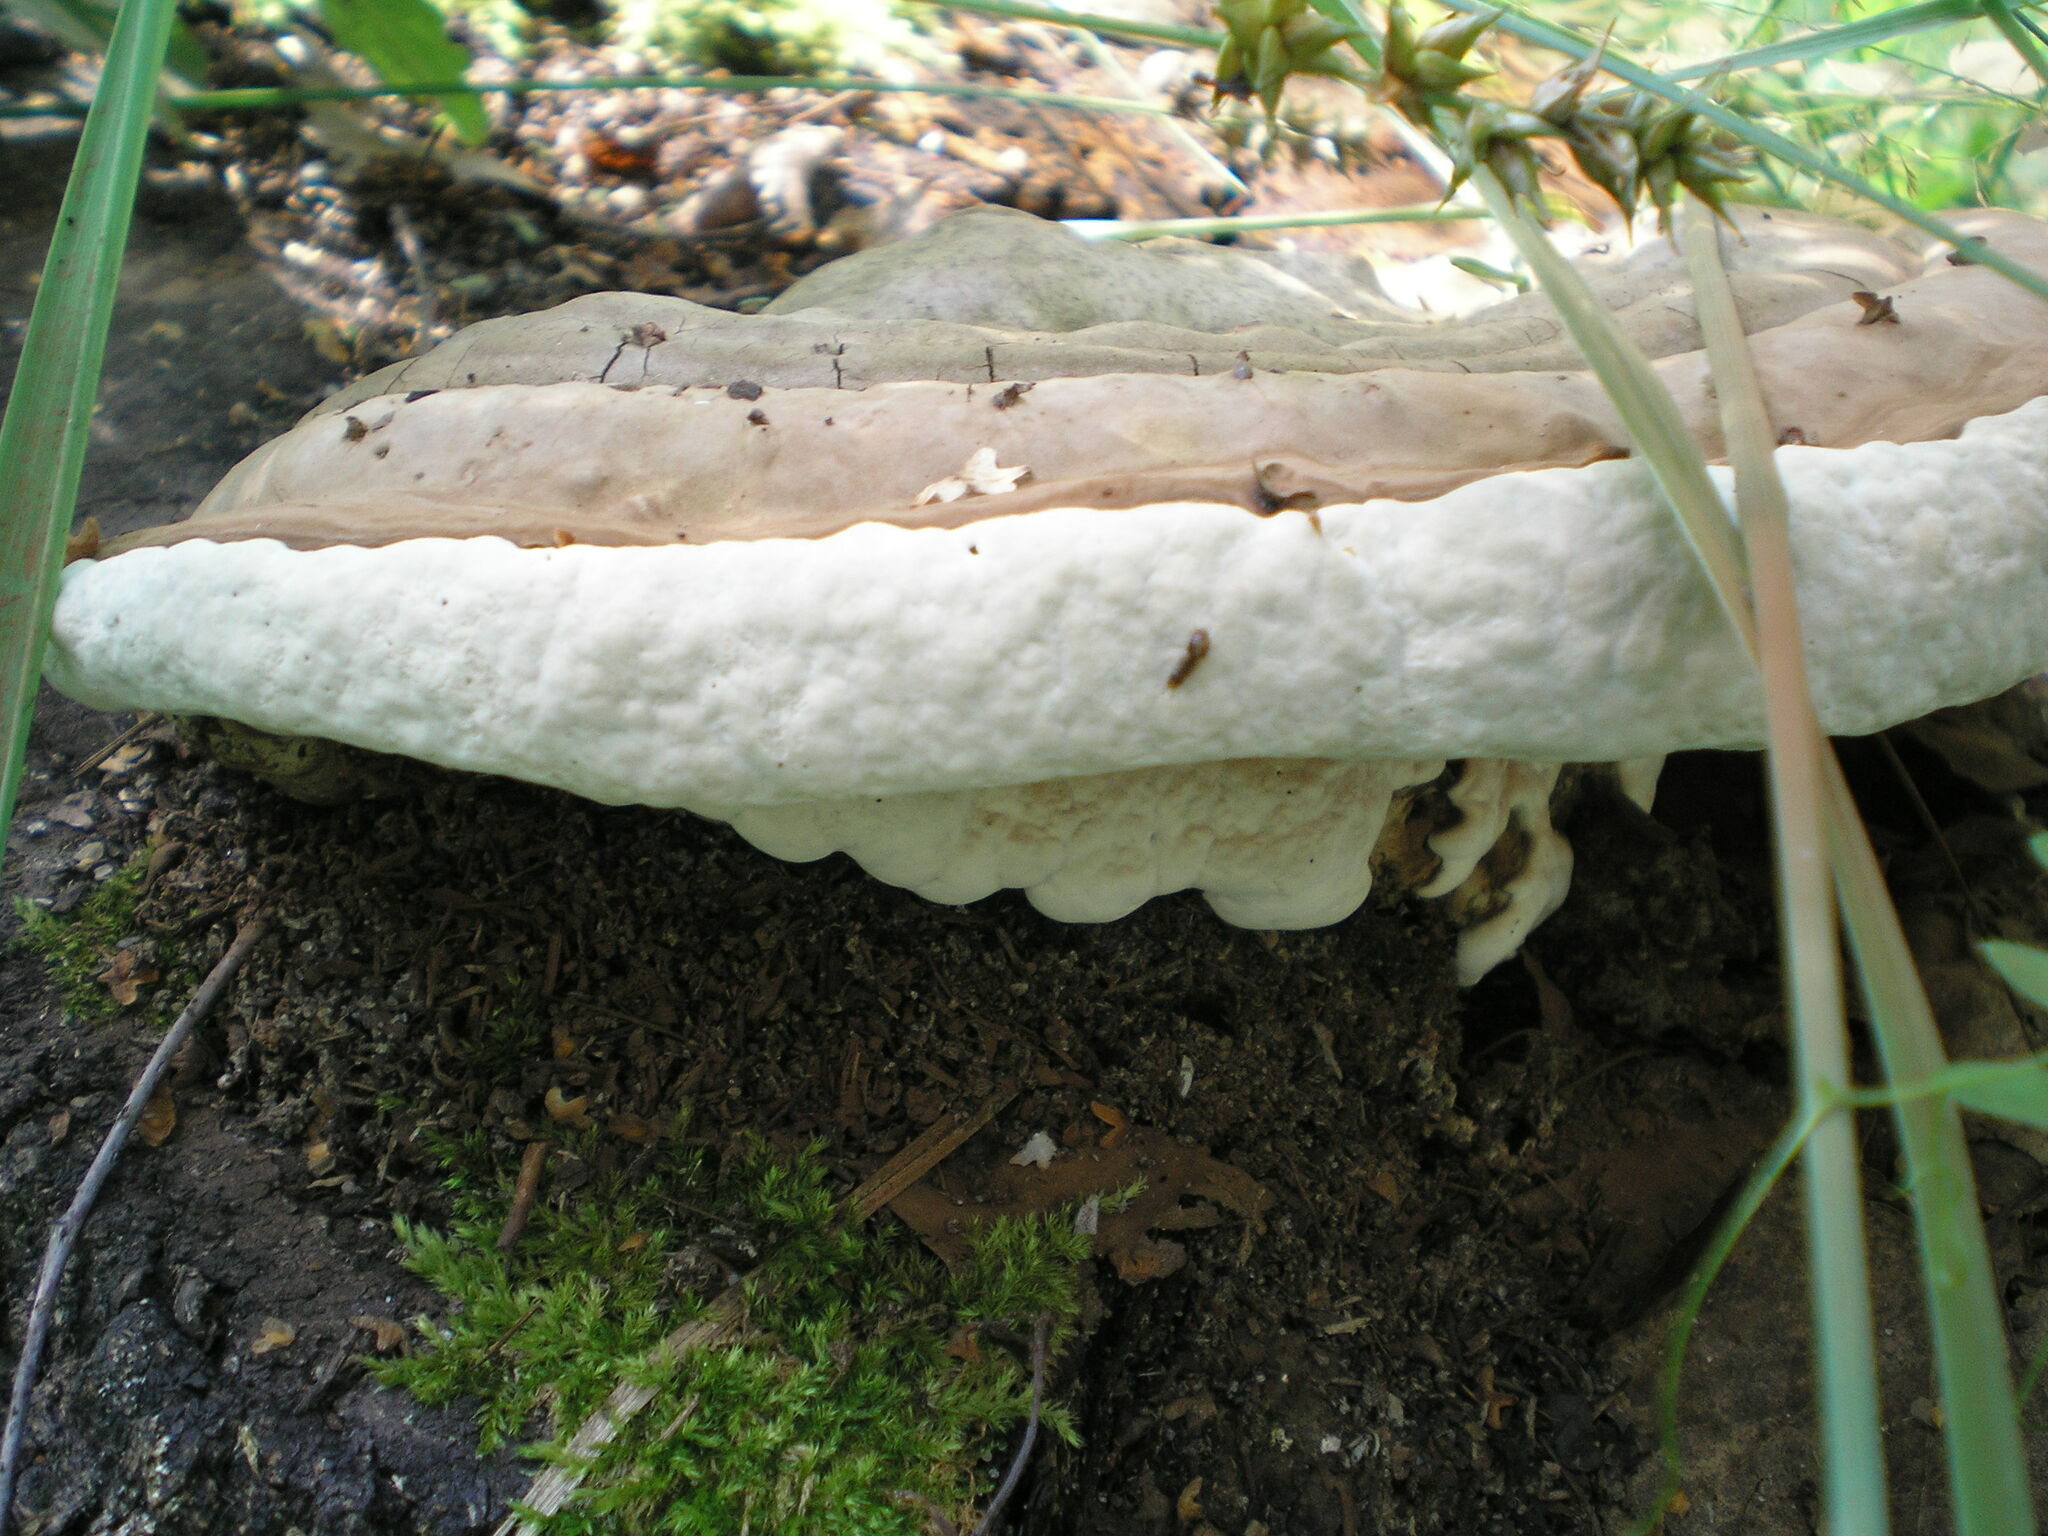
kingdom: Fungi
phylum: Basidiomycota
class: Agaricomycetes
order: Polyporales
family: Polyporaceae
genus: Ganoderma
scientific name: Ganoderma applanatum
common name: Artist's bracket
